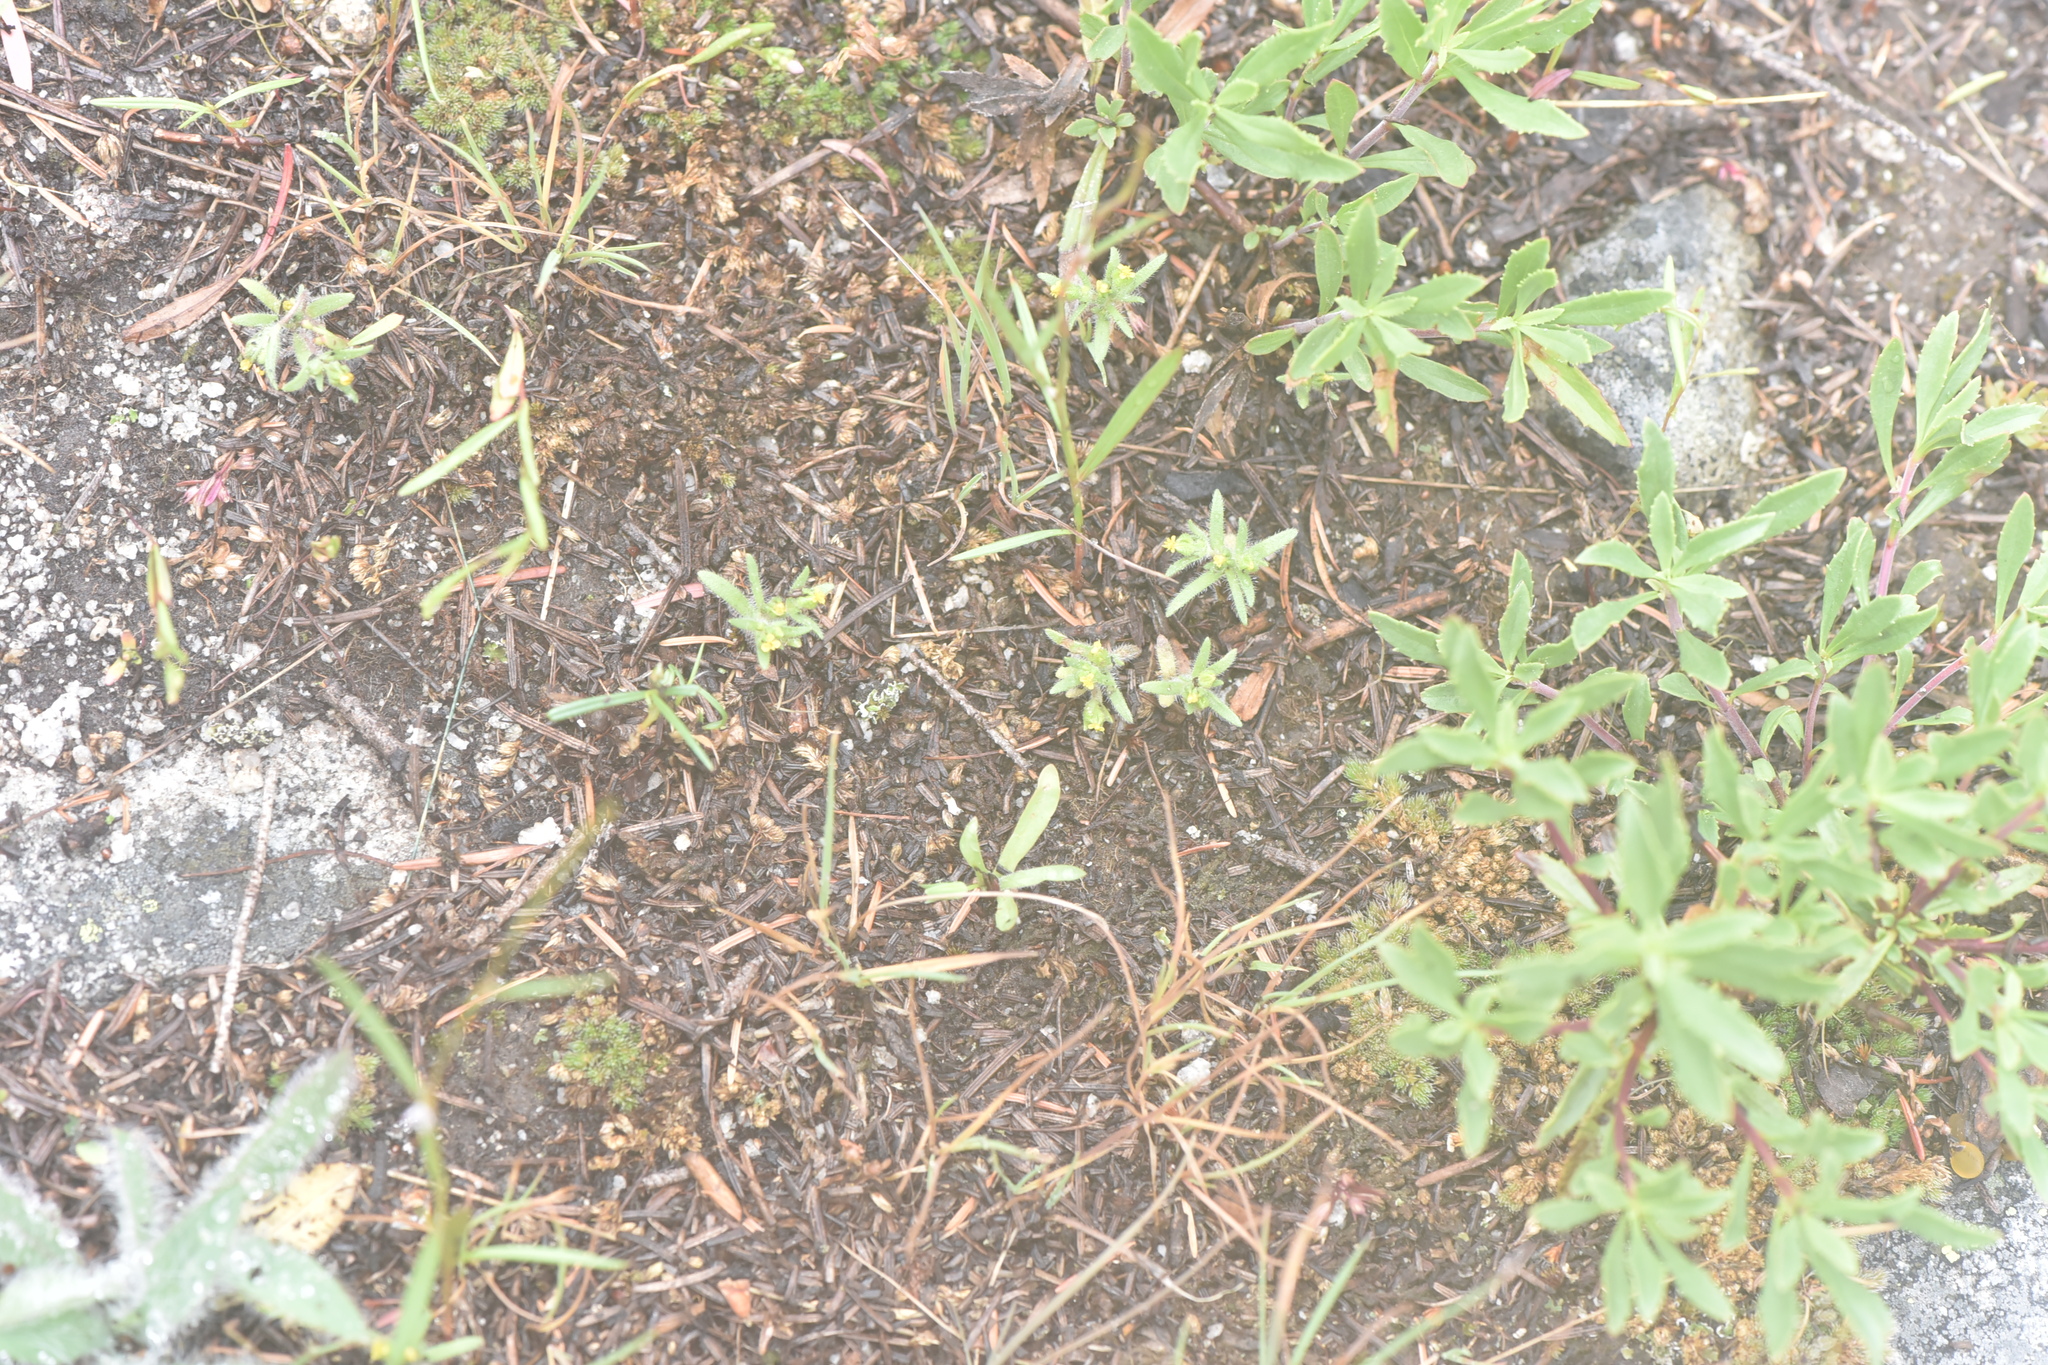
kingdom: Plantae
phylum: Tracheophyta
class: Magnoliopsida
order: Asterales
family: Asteraceae
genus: Hemizonella
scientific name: Hemizonella minima
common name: Opposite-leaved tarweed
